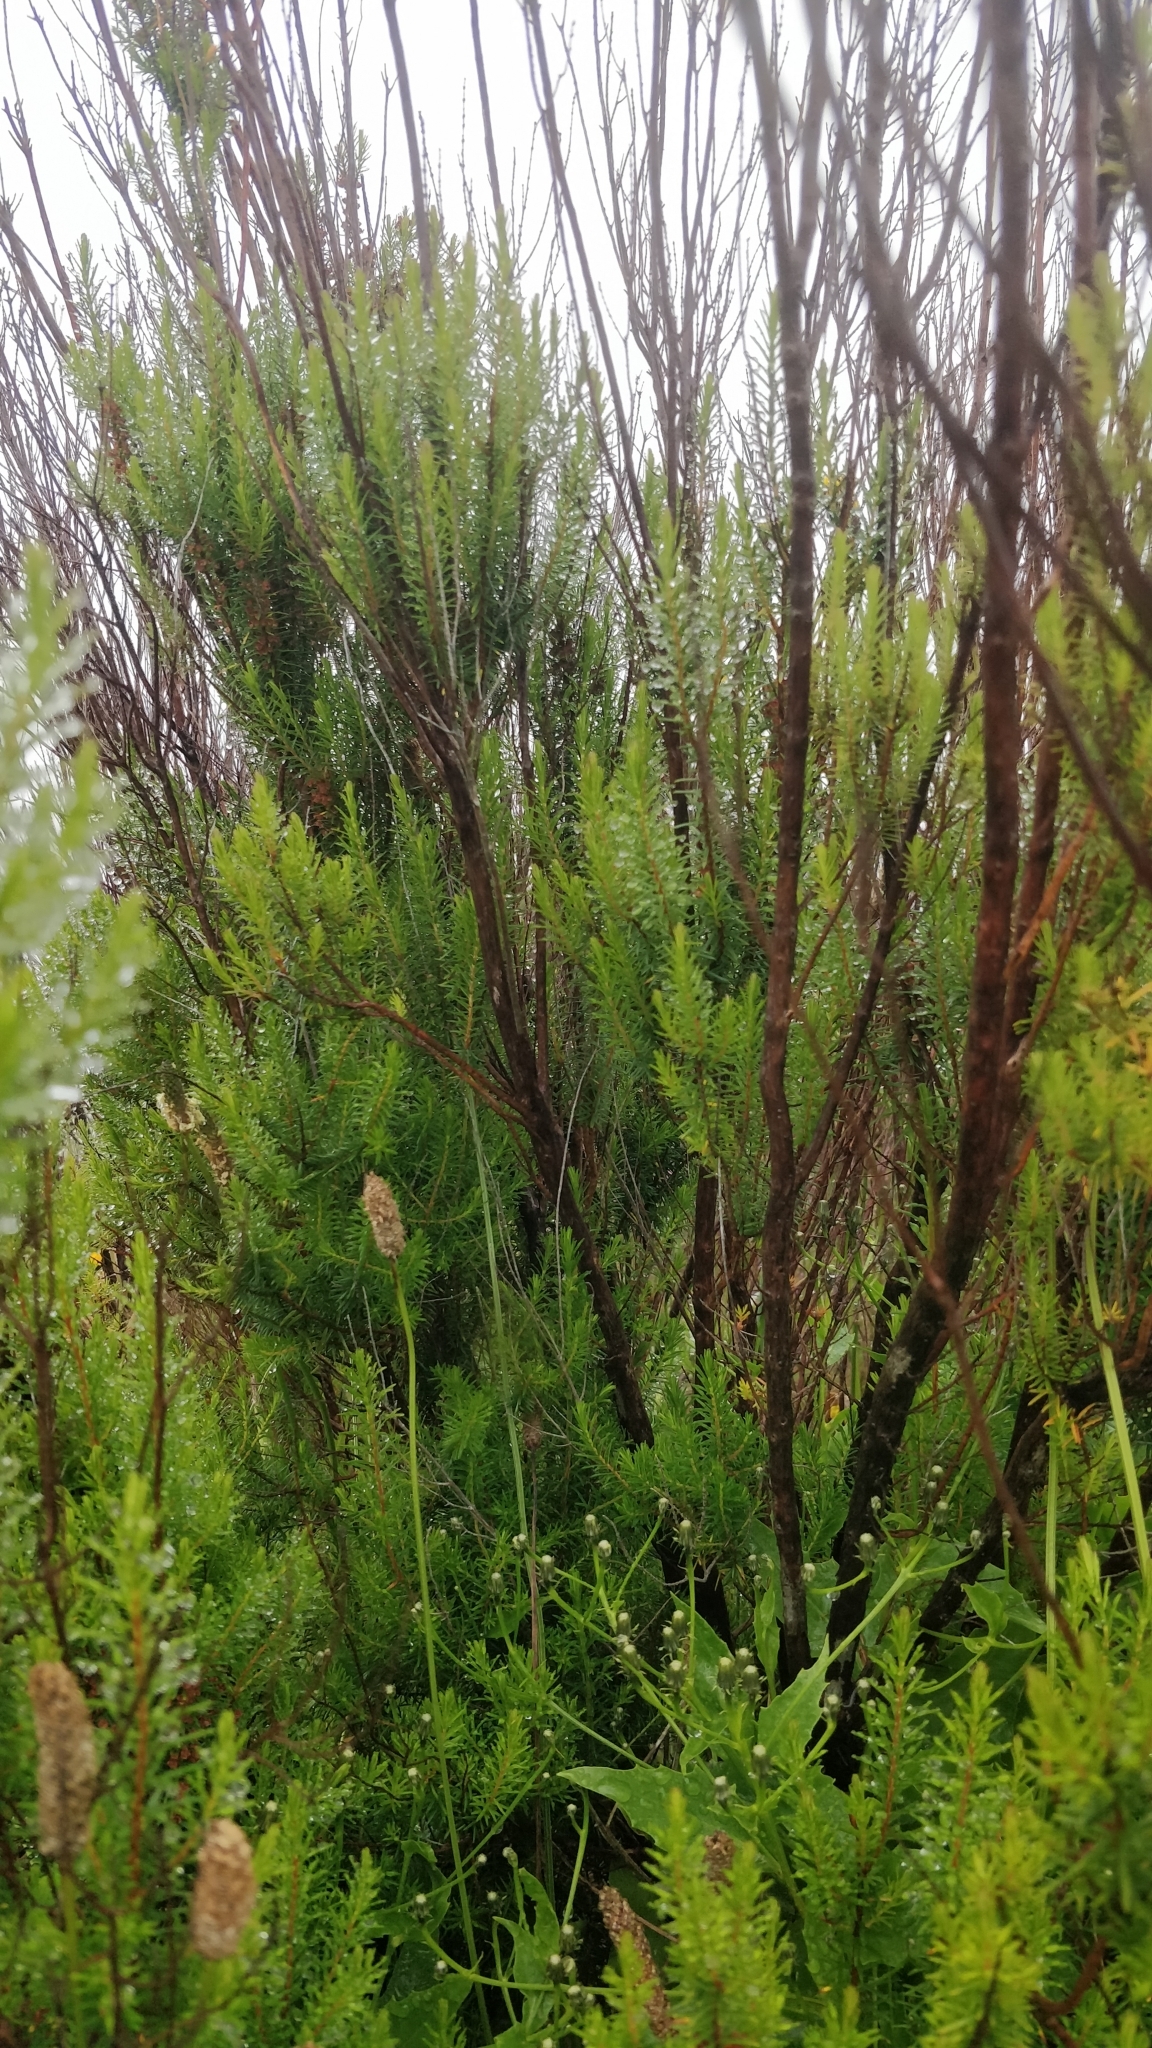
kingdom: Plantae
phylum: Tracheophyta
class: Magnoliopsida
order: Ericales
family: Ericaceae
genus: Erica
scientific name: Erica platycodon
